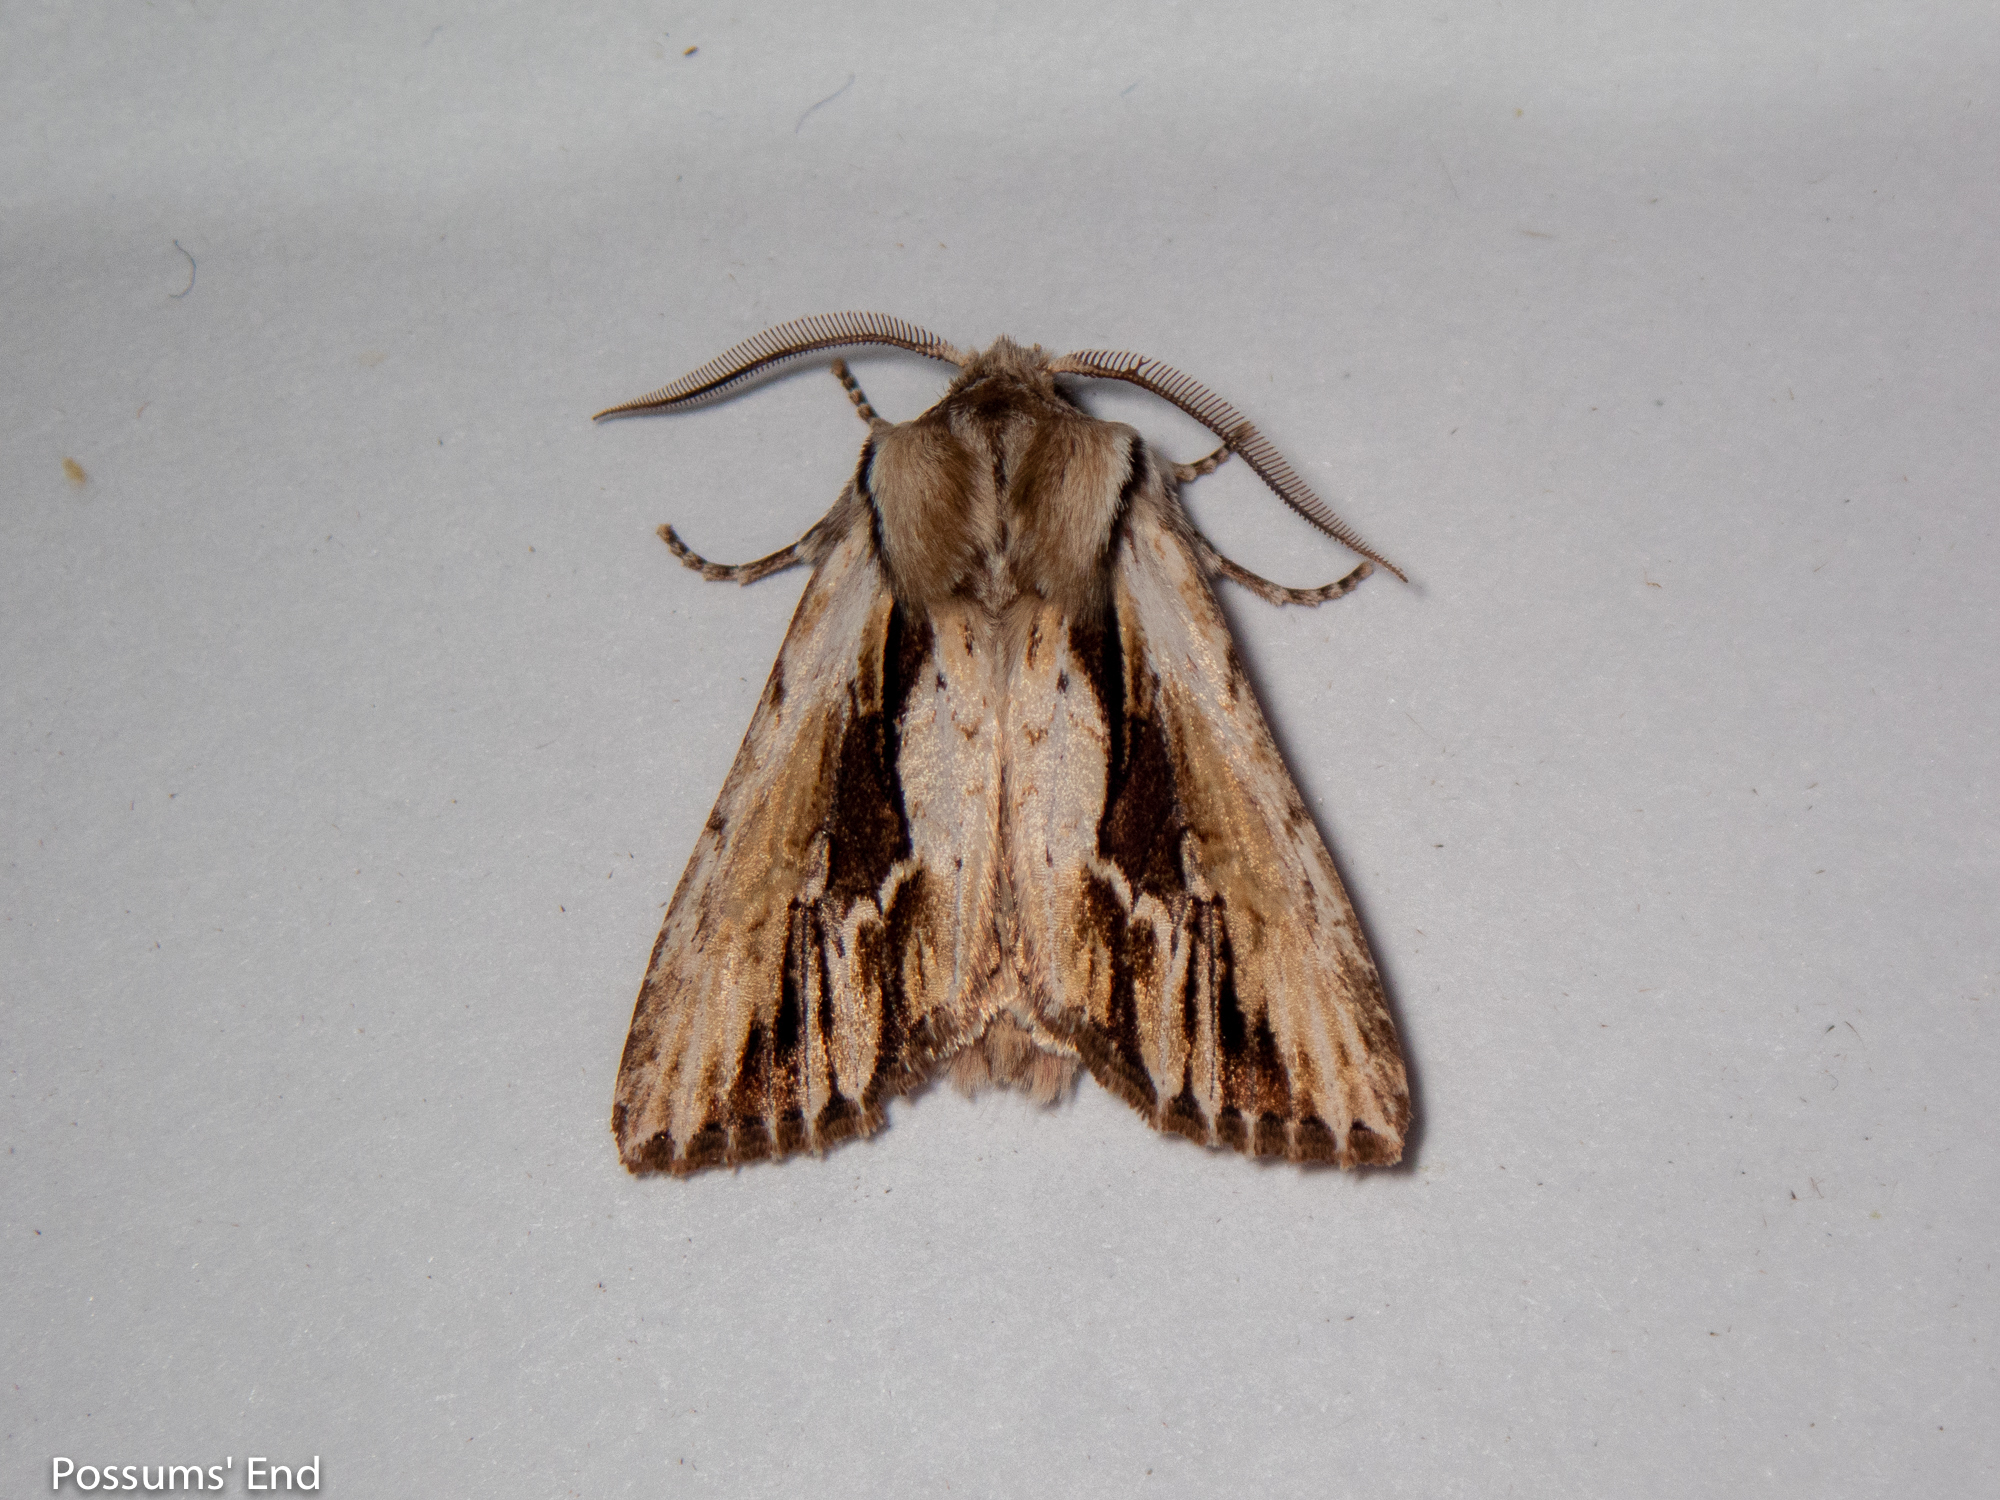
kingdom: Animalia
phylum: Arthropoda
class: Insecta
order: Lepidoptera
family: Noctuidae
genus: Ichneutica
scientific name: Ichneutica
